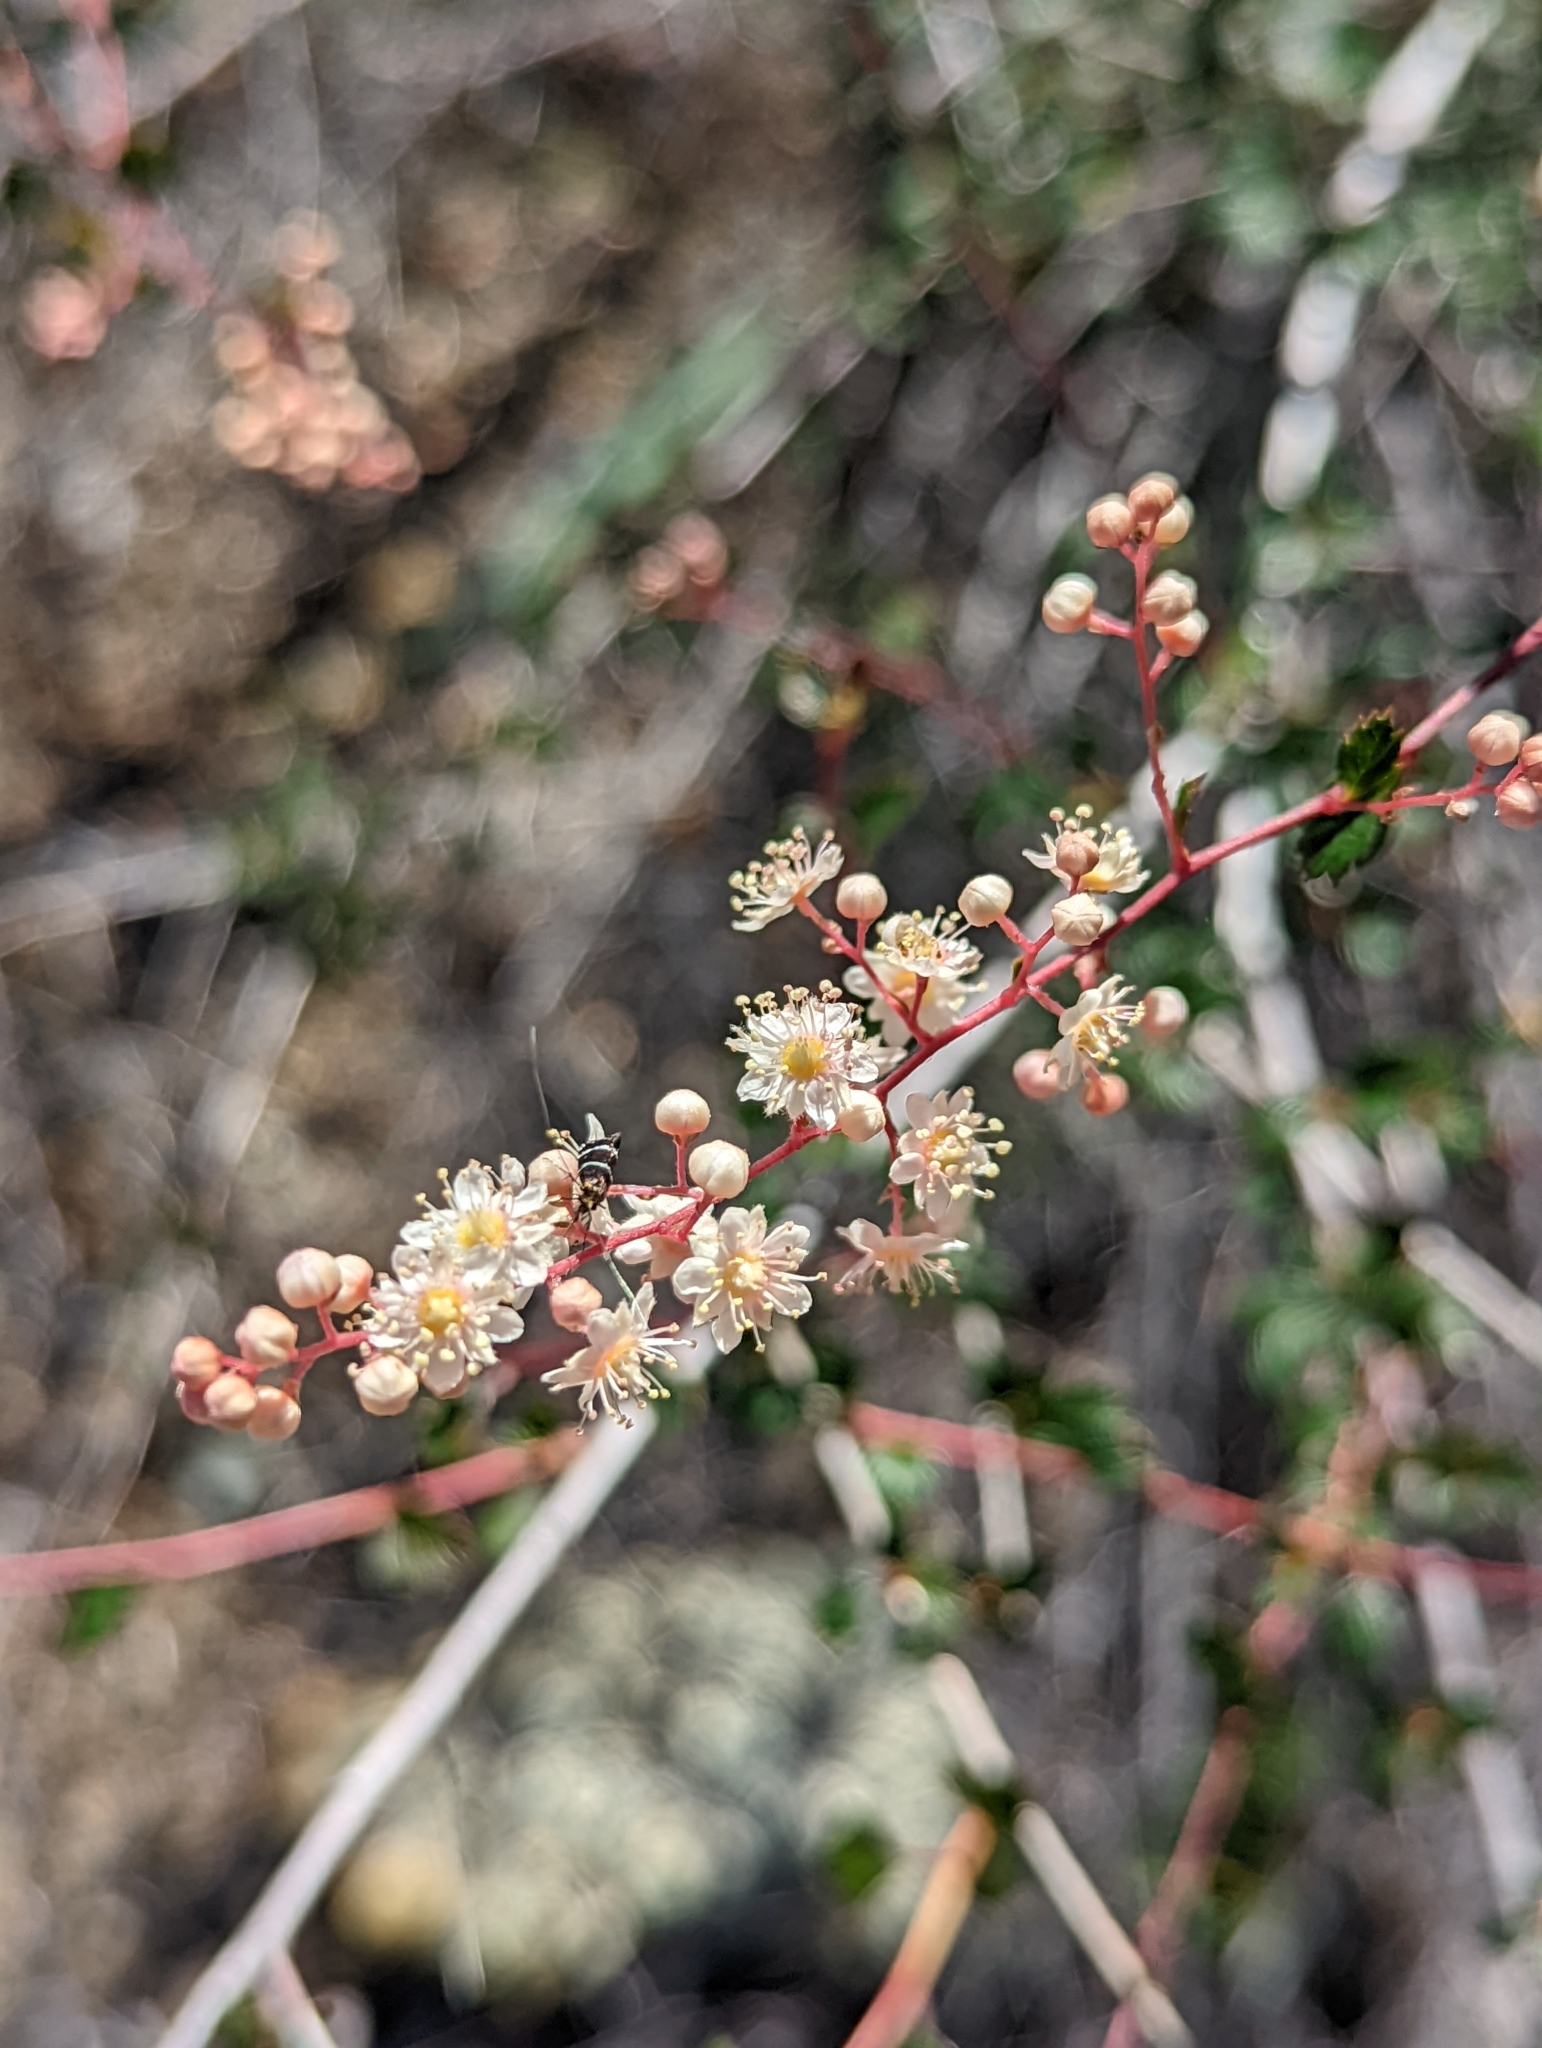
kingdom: Plantae
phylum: Tracheophyta
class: Magnoliopsida
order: Rosales
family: Rosaceae
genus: Holodiscus
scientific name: Holodiscus discolor
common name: Oceanspray
